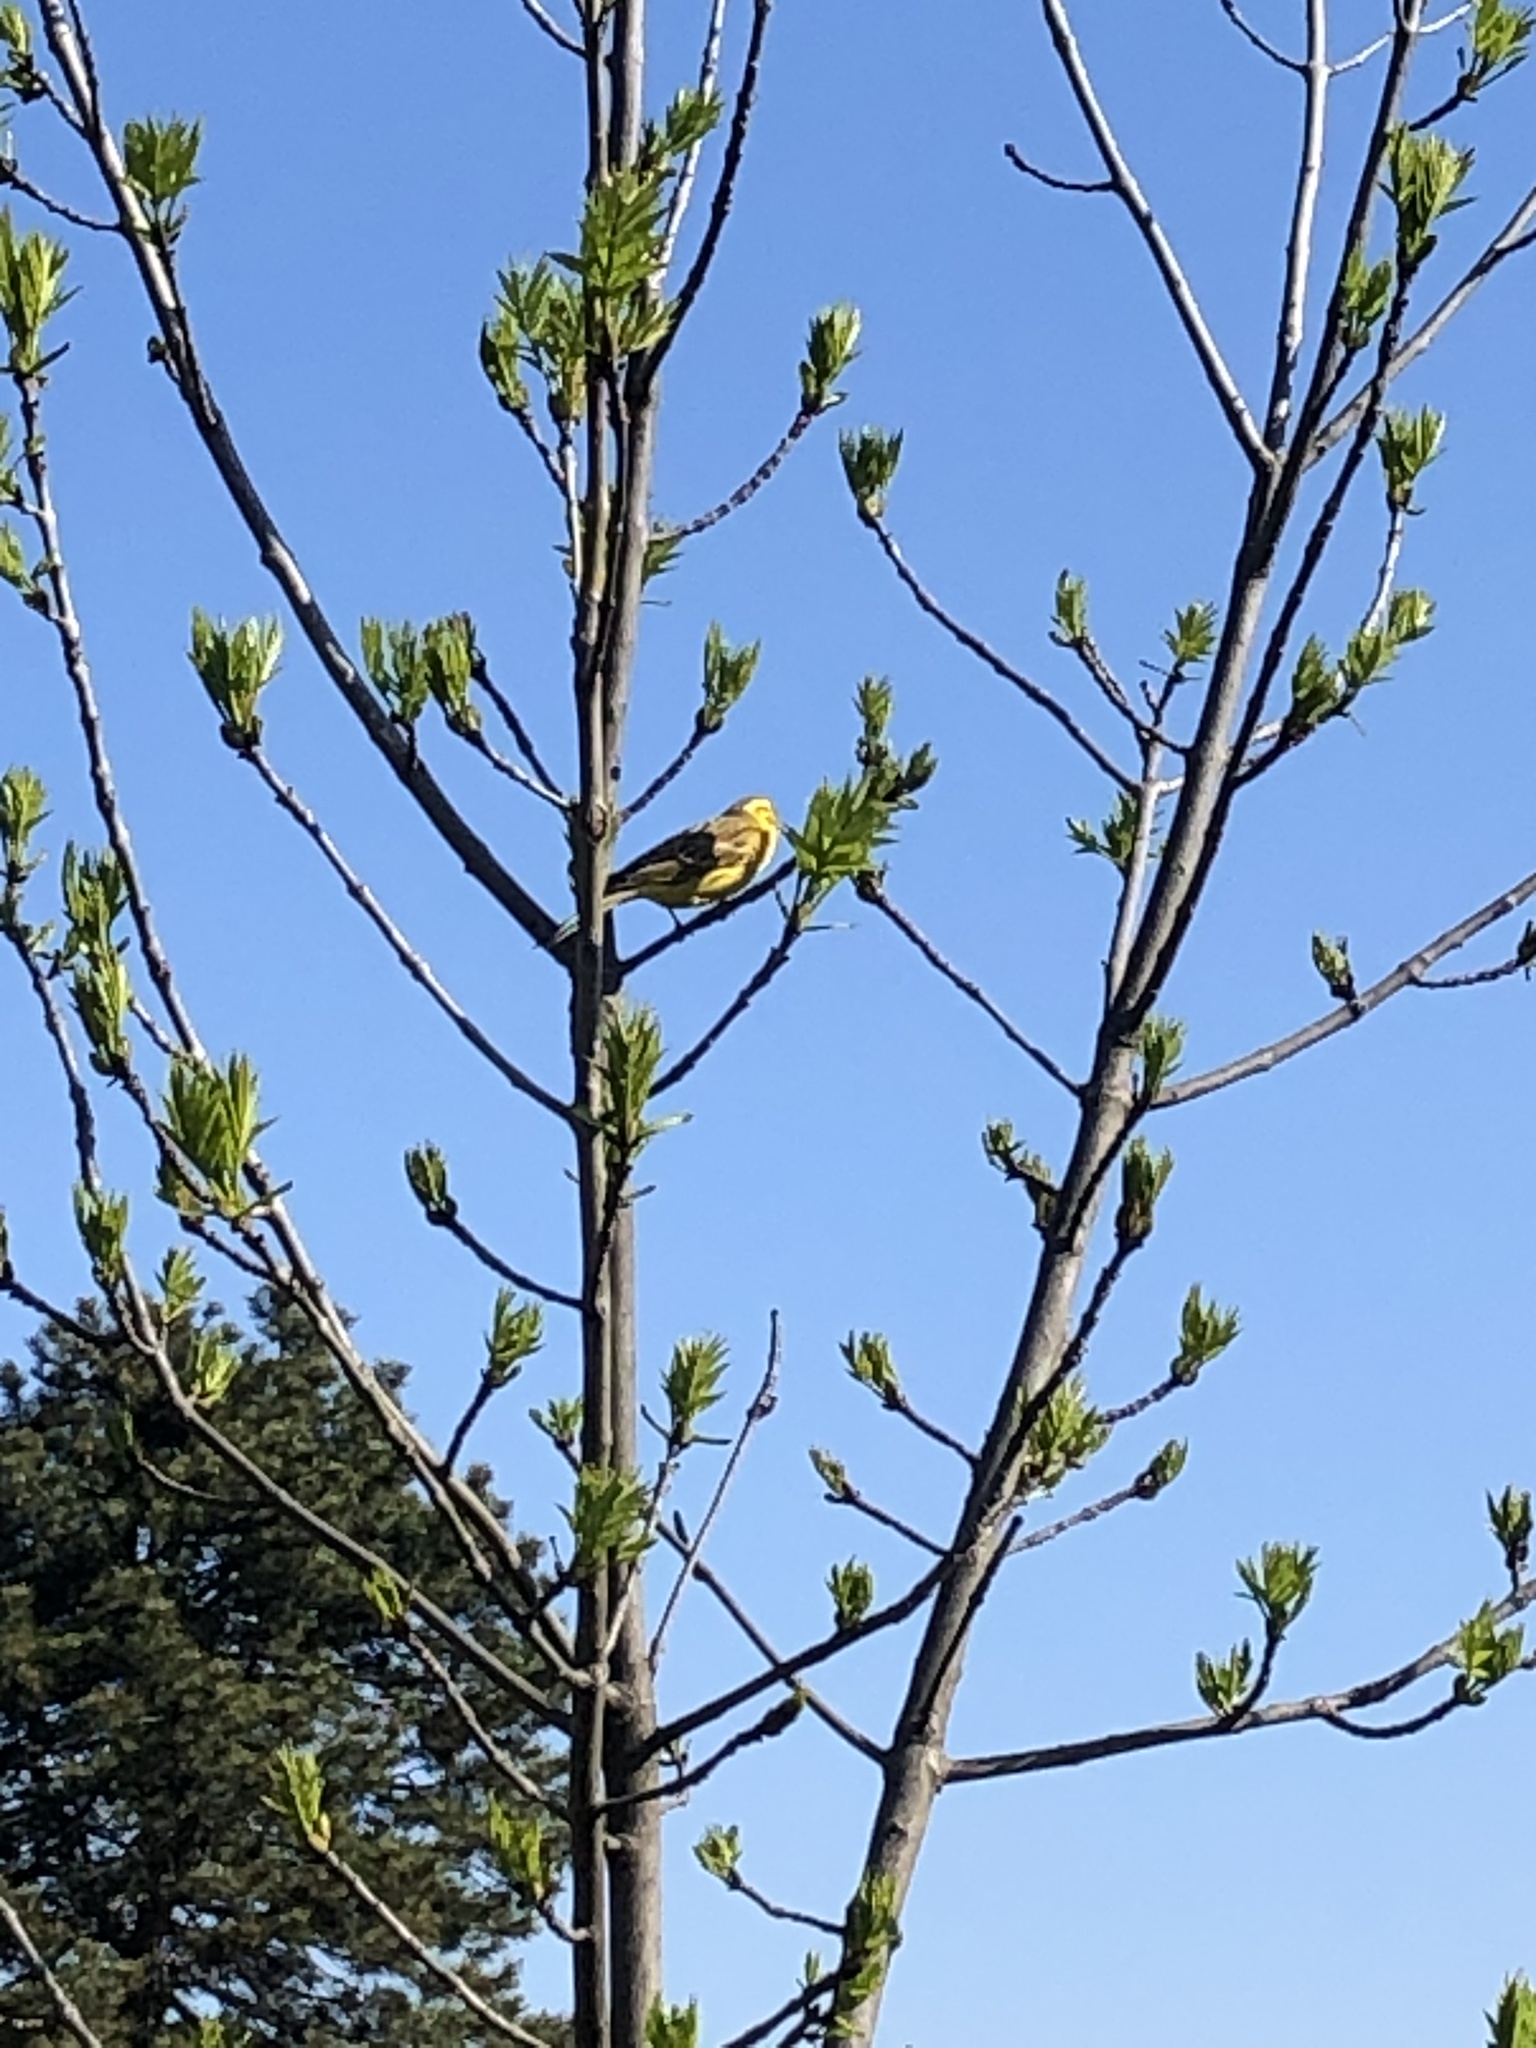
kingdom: Animalia
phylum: Chordata
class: Aves
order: Passeriformes
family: Emberizidae
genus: Emberiza
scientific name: Emberiza citrinella
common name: Yellowhammer
